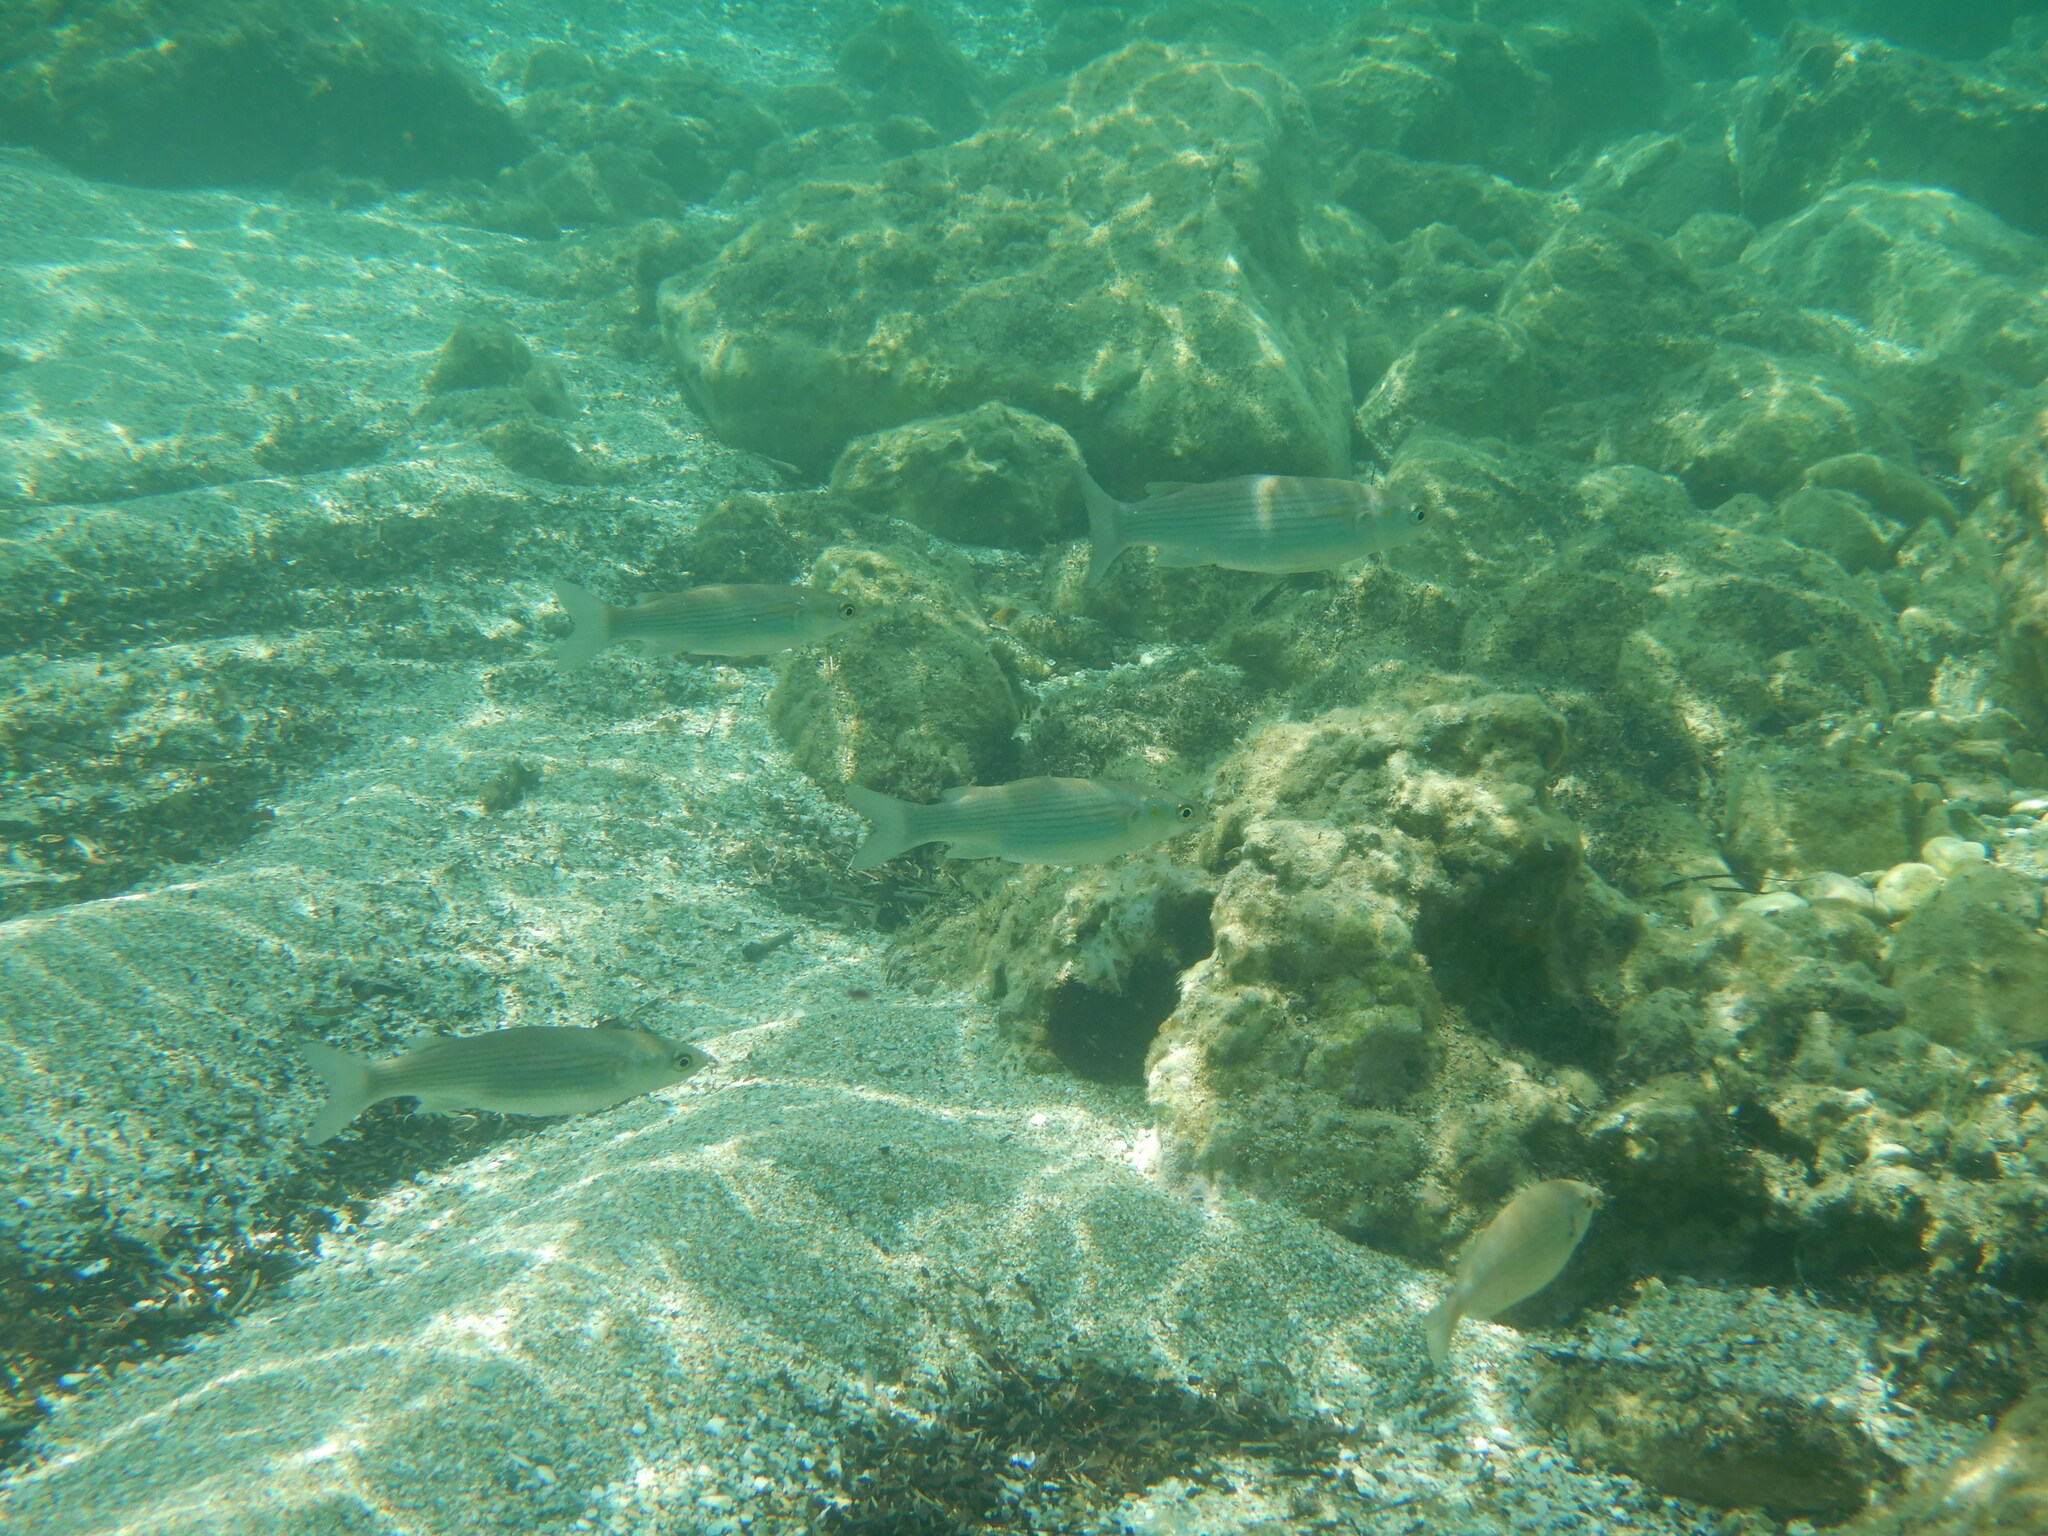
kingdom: Animalia
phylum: Chordata
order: Mugiliformes
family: Mugilidae
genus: Chelon
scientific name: Chelon
